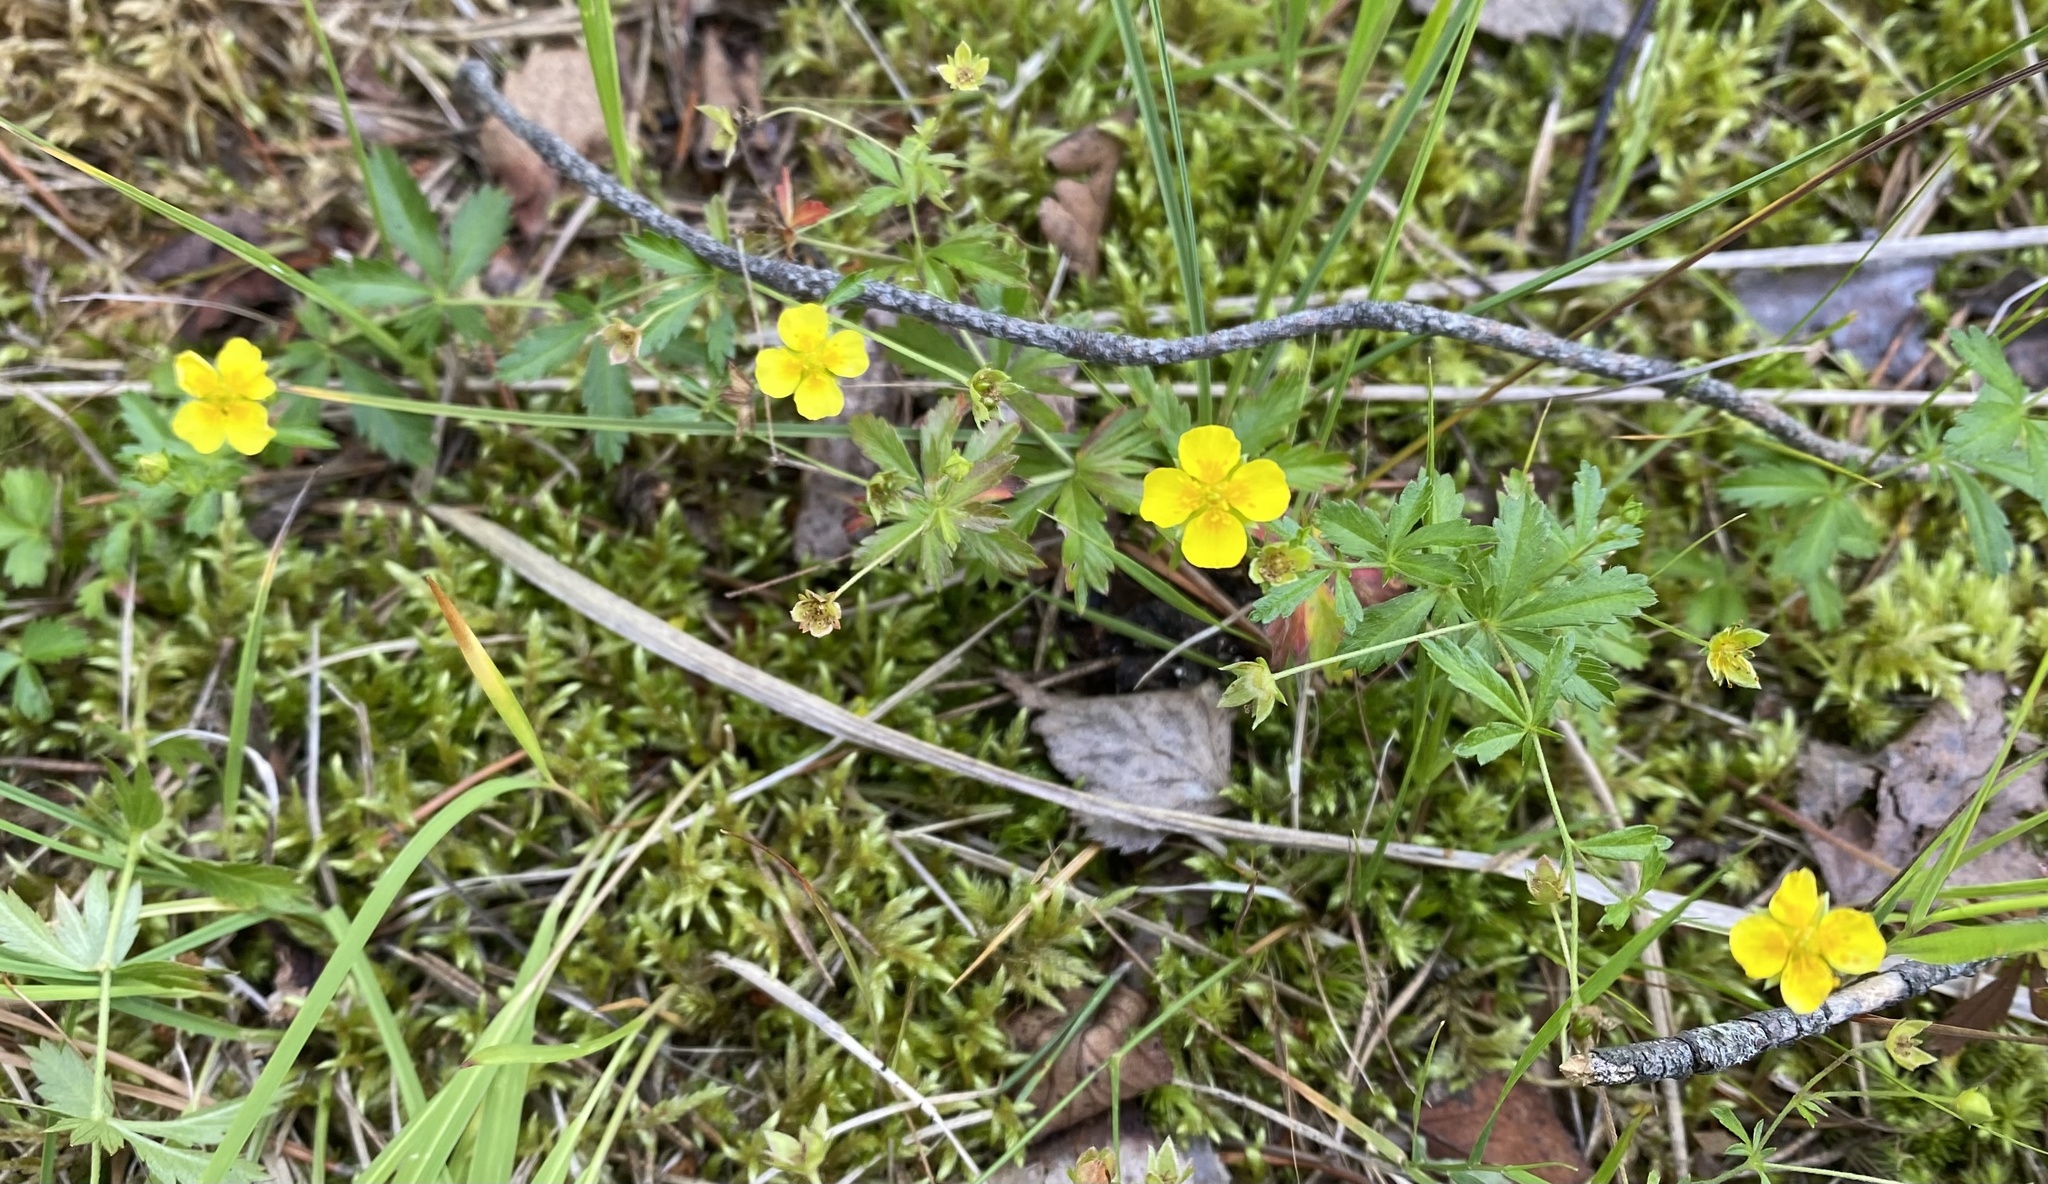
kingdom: Plantae
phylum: Tracheophyta
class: Magnoliopsida
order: Rosales
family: Rosaceae
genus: Potentilla
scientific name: Potentilla erecta
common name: Tormentil
